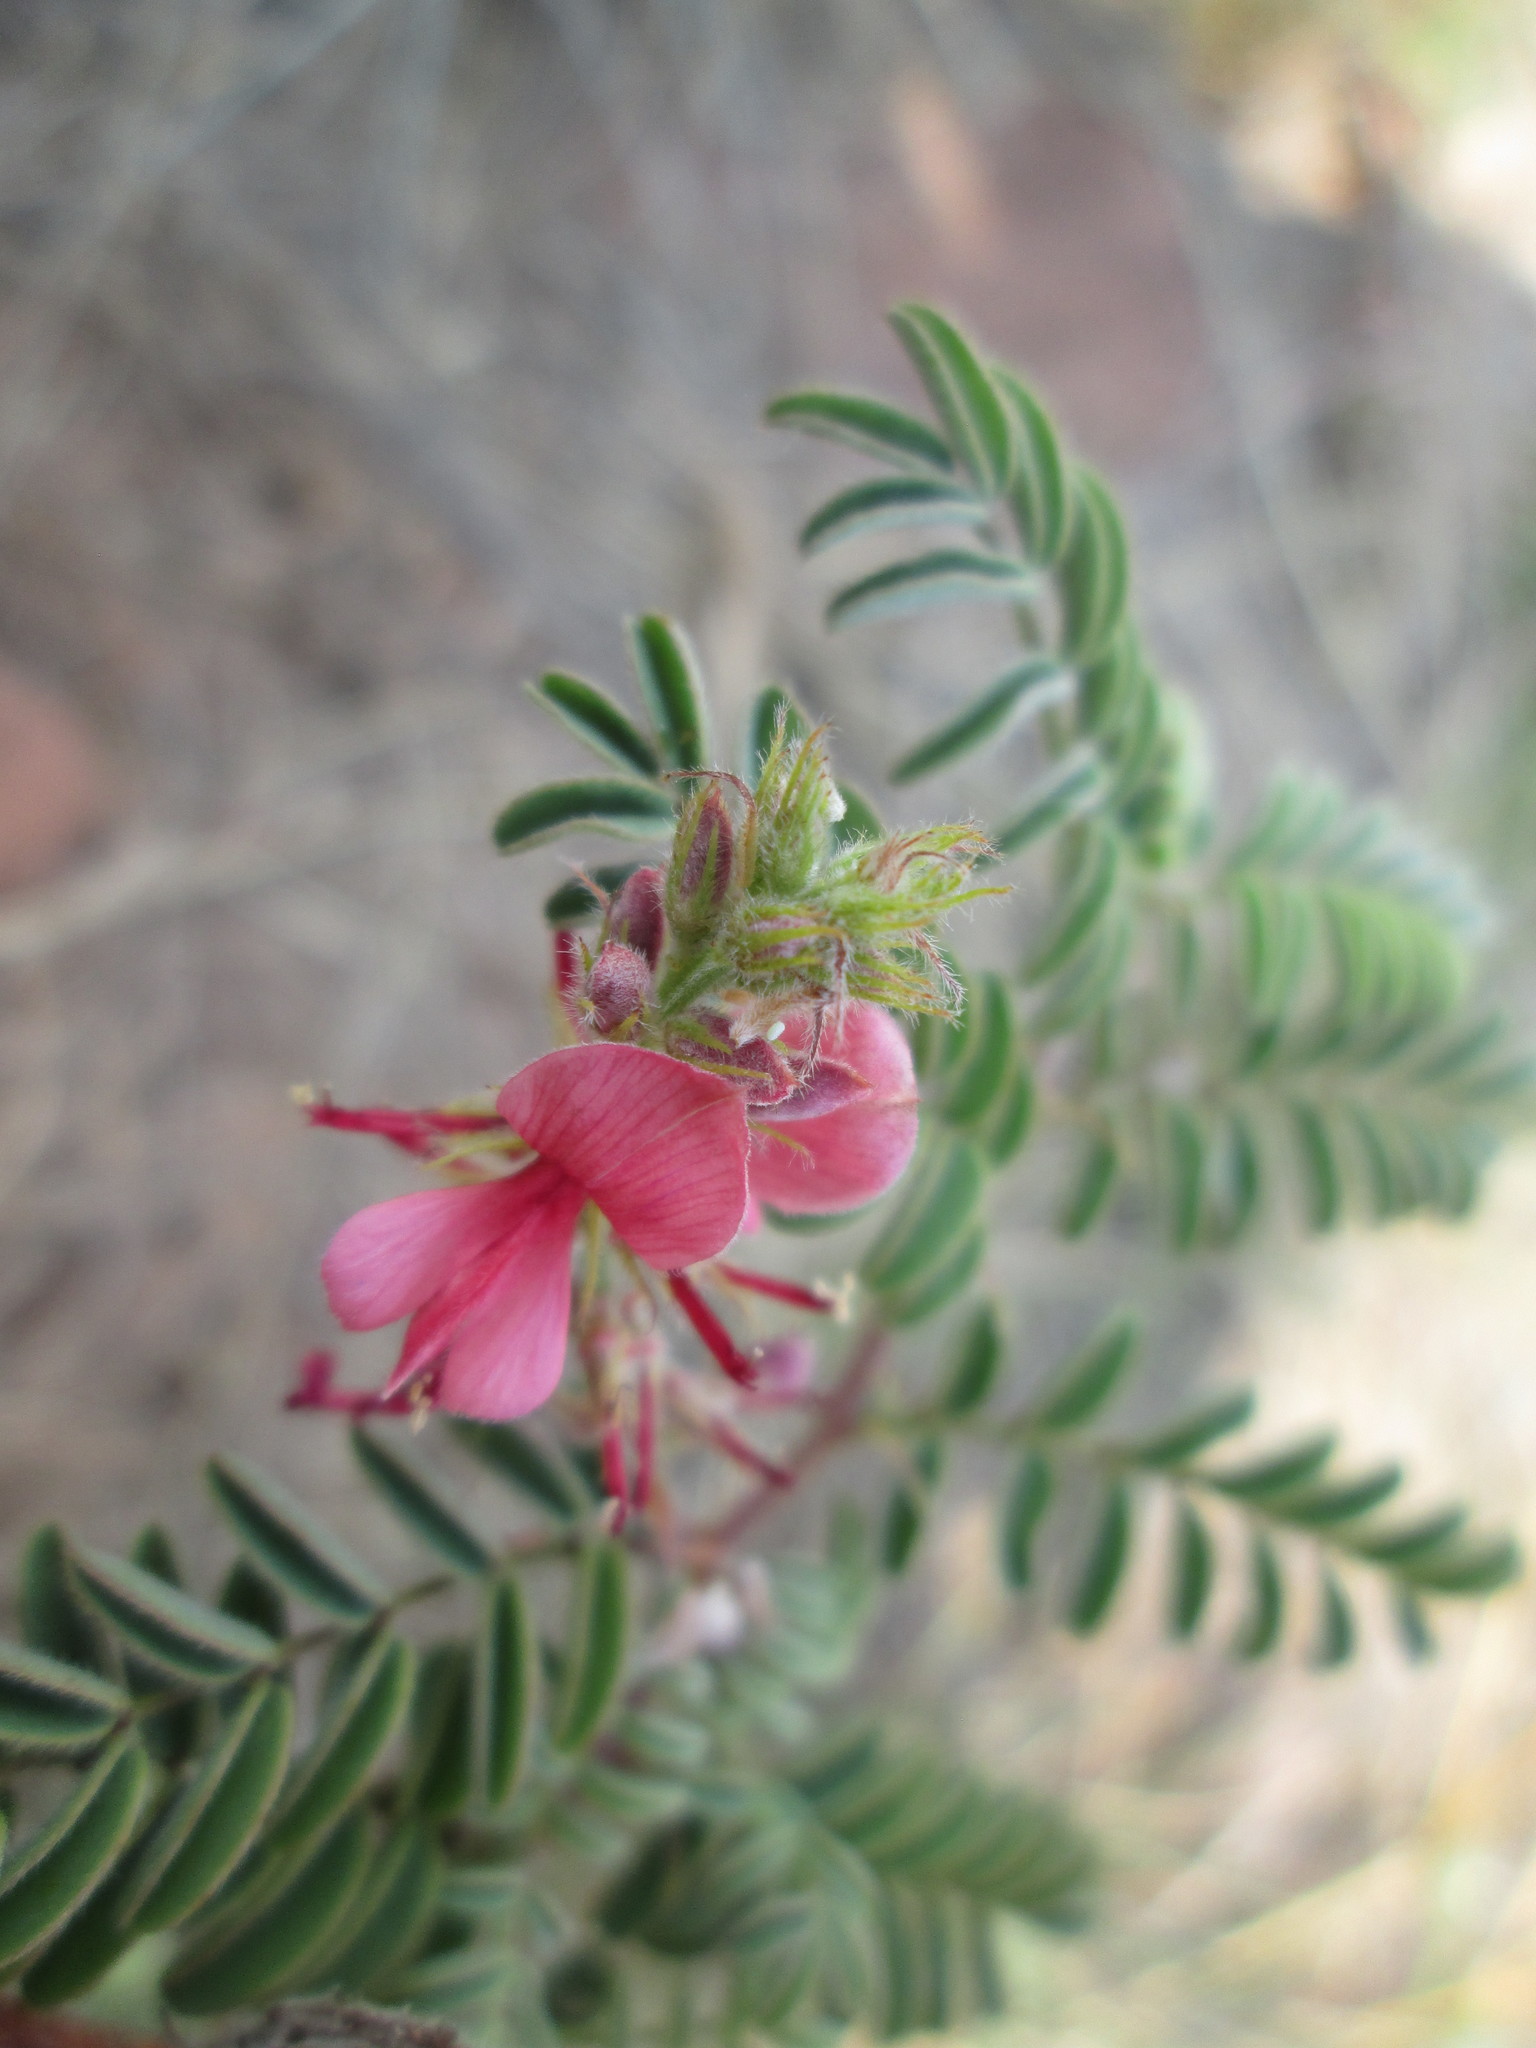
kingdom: Plantae
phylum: Tracheophyta
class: Magnoliopsida
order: Fabales
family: Fabaceae
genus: Indigofera
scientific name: Indigofera comosa
